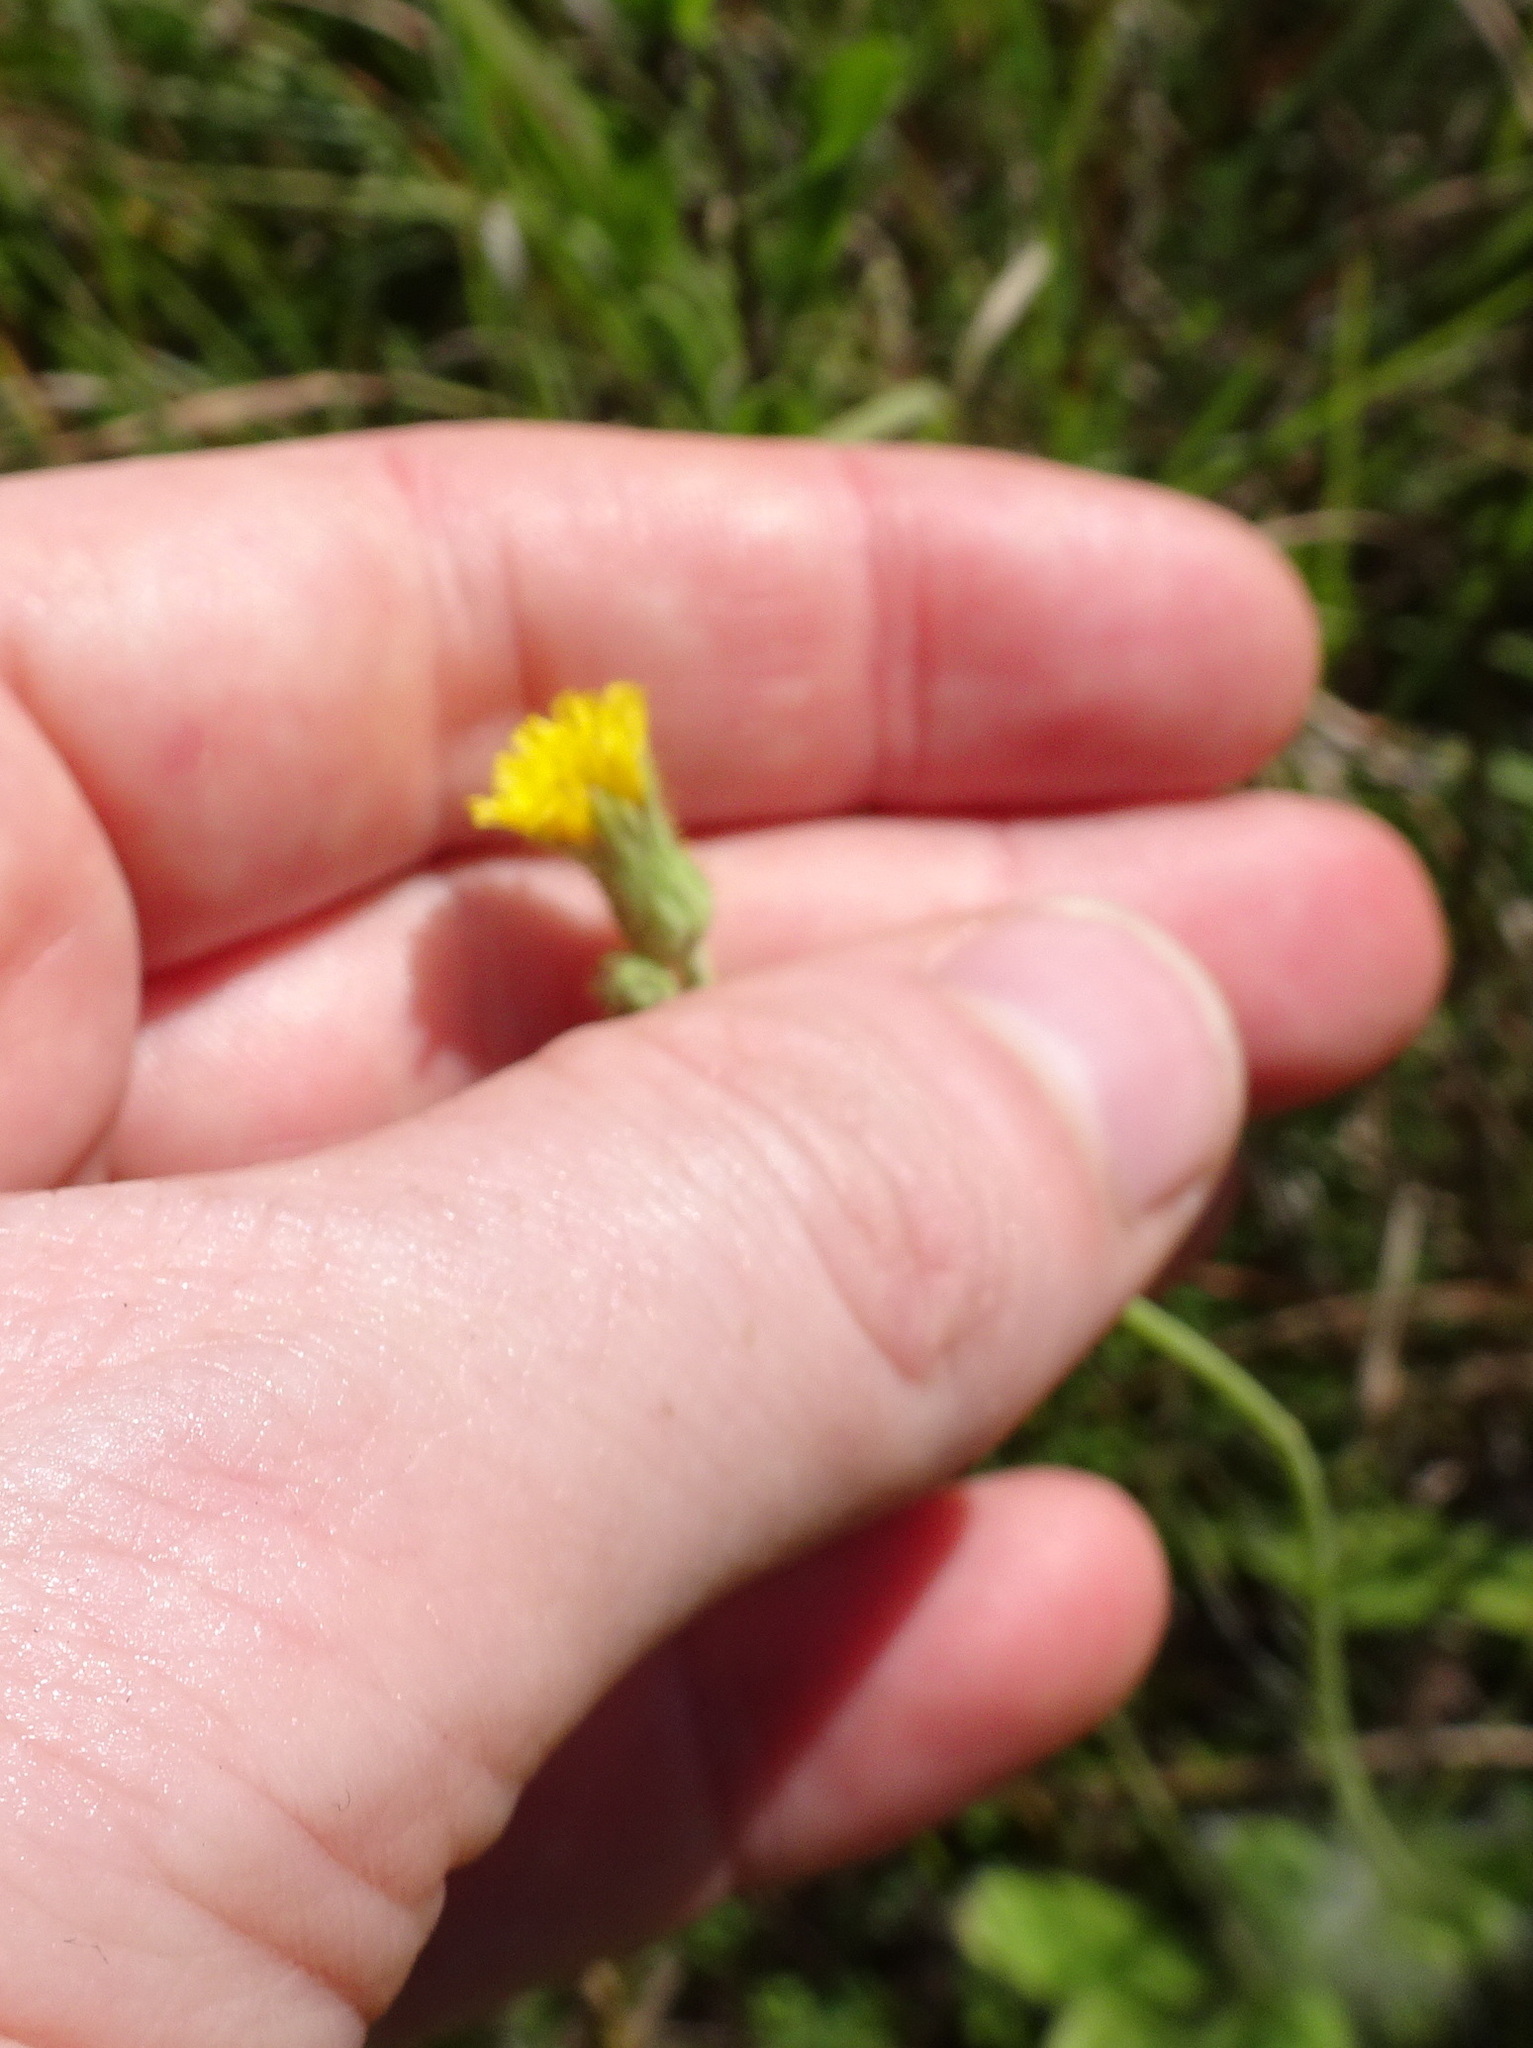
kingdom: Plantae
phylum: Tracheophyta
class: Magnoliopsida
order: Asterales
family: Asteraceae
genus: Hieracium
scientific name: Hieracium longipilum
